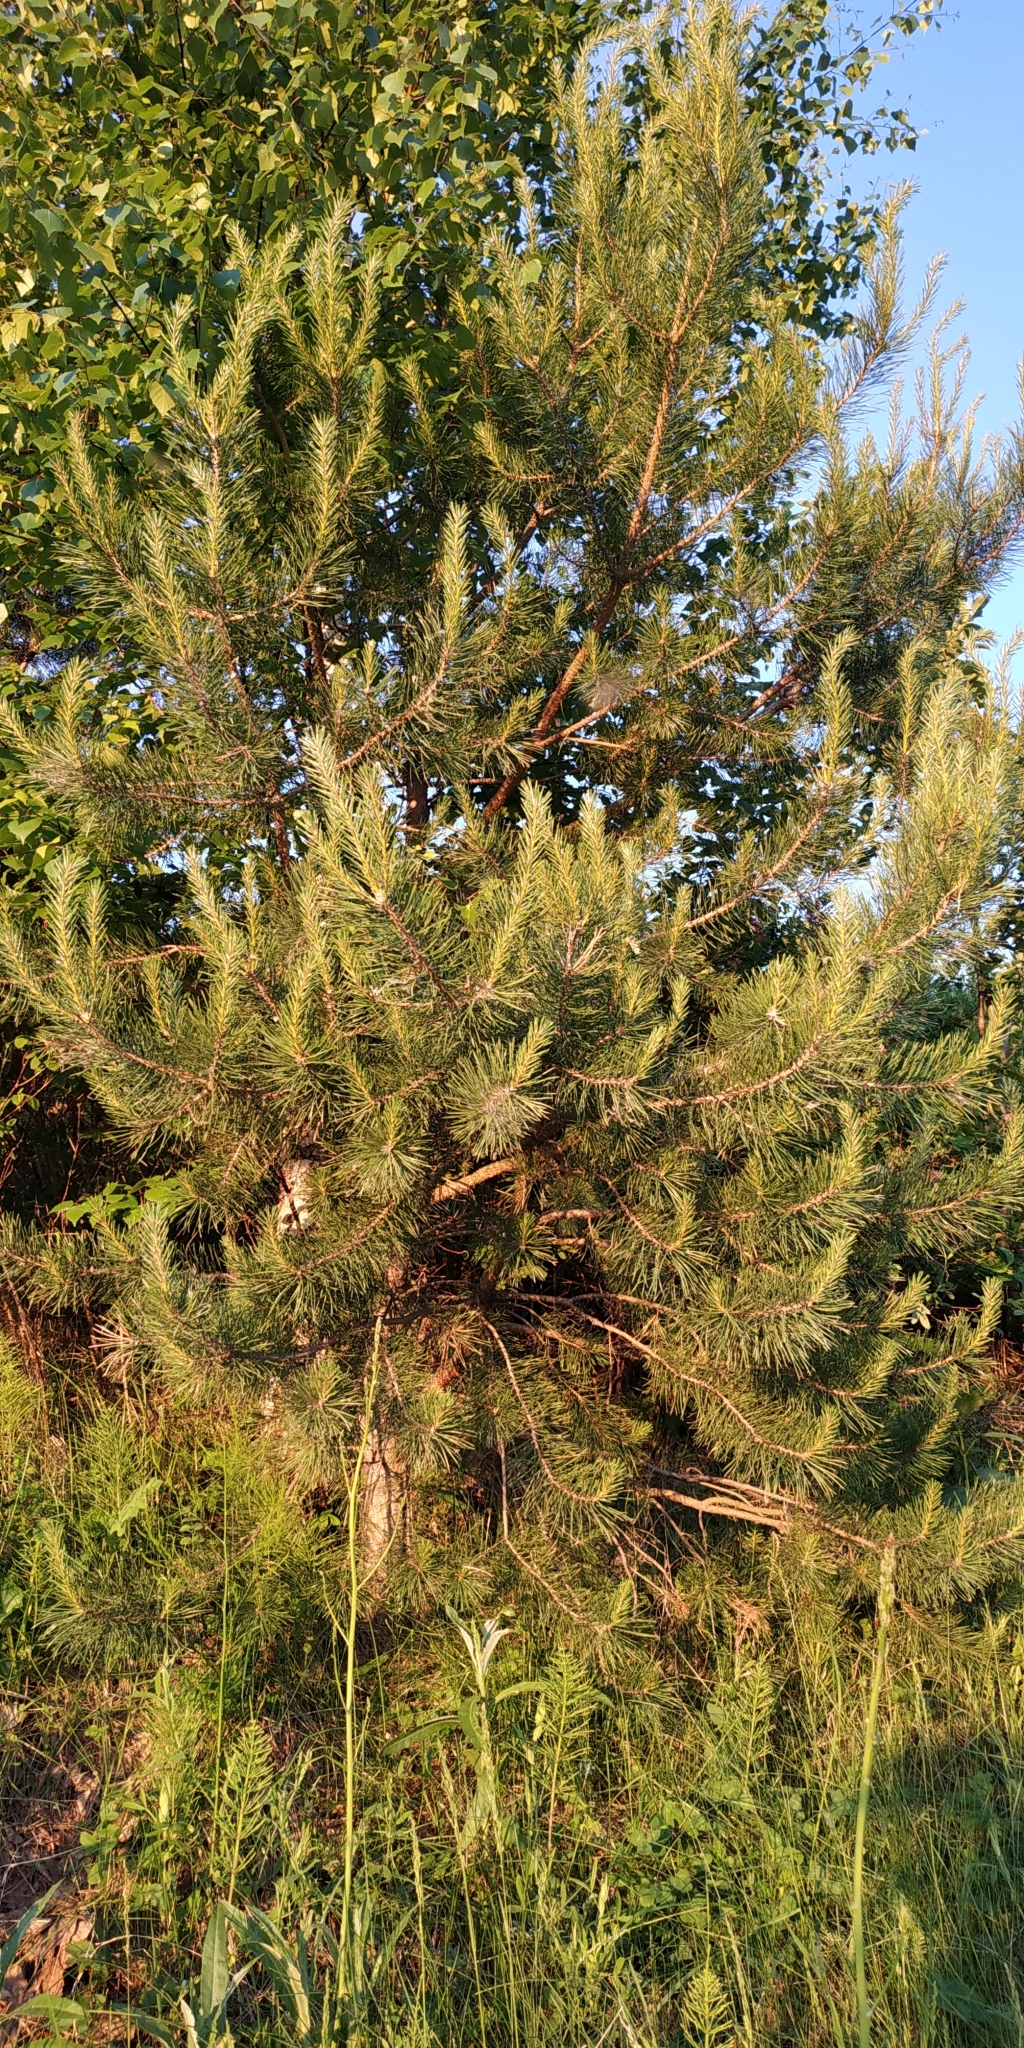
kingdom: Plantae
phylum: Tracheophyta
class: Pinopsida
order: Pinales
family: Pinaceae
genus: Pinus
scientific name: Pinus sylvestris
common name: Scots pine
